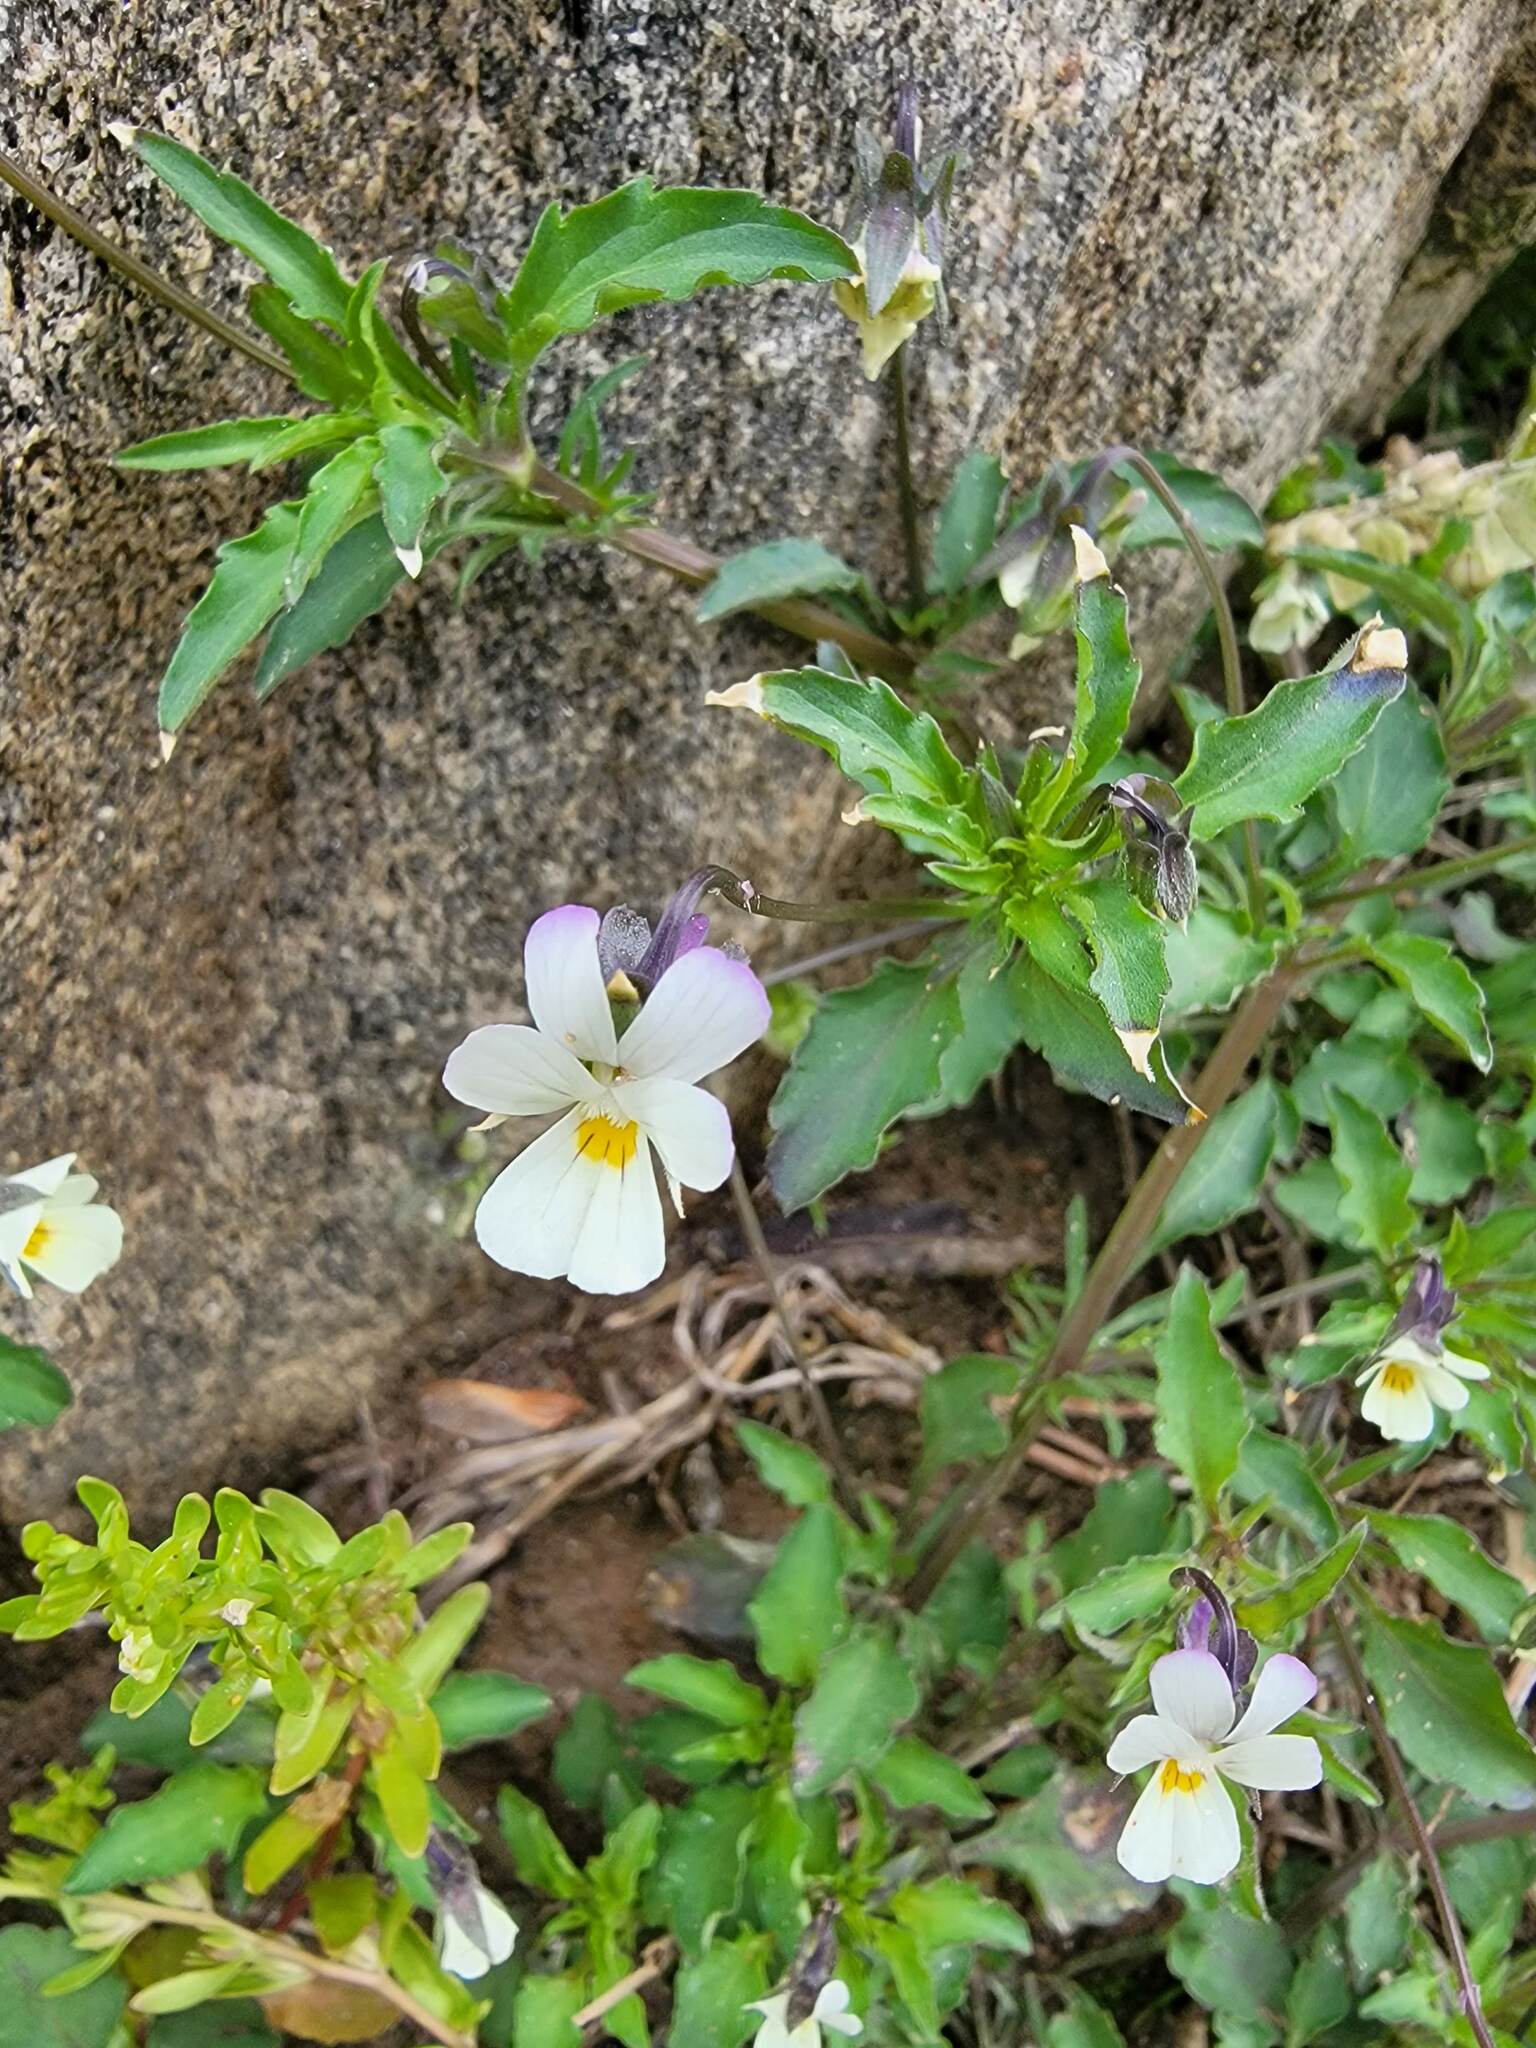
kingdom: Plantae
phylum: Tracheophyta
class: Magnoliopsida
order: Malpighiales
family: Violaceae
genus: Viola
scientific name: Viola arvensis
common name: Field pansy
